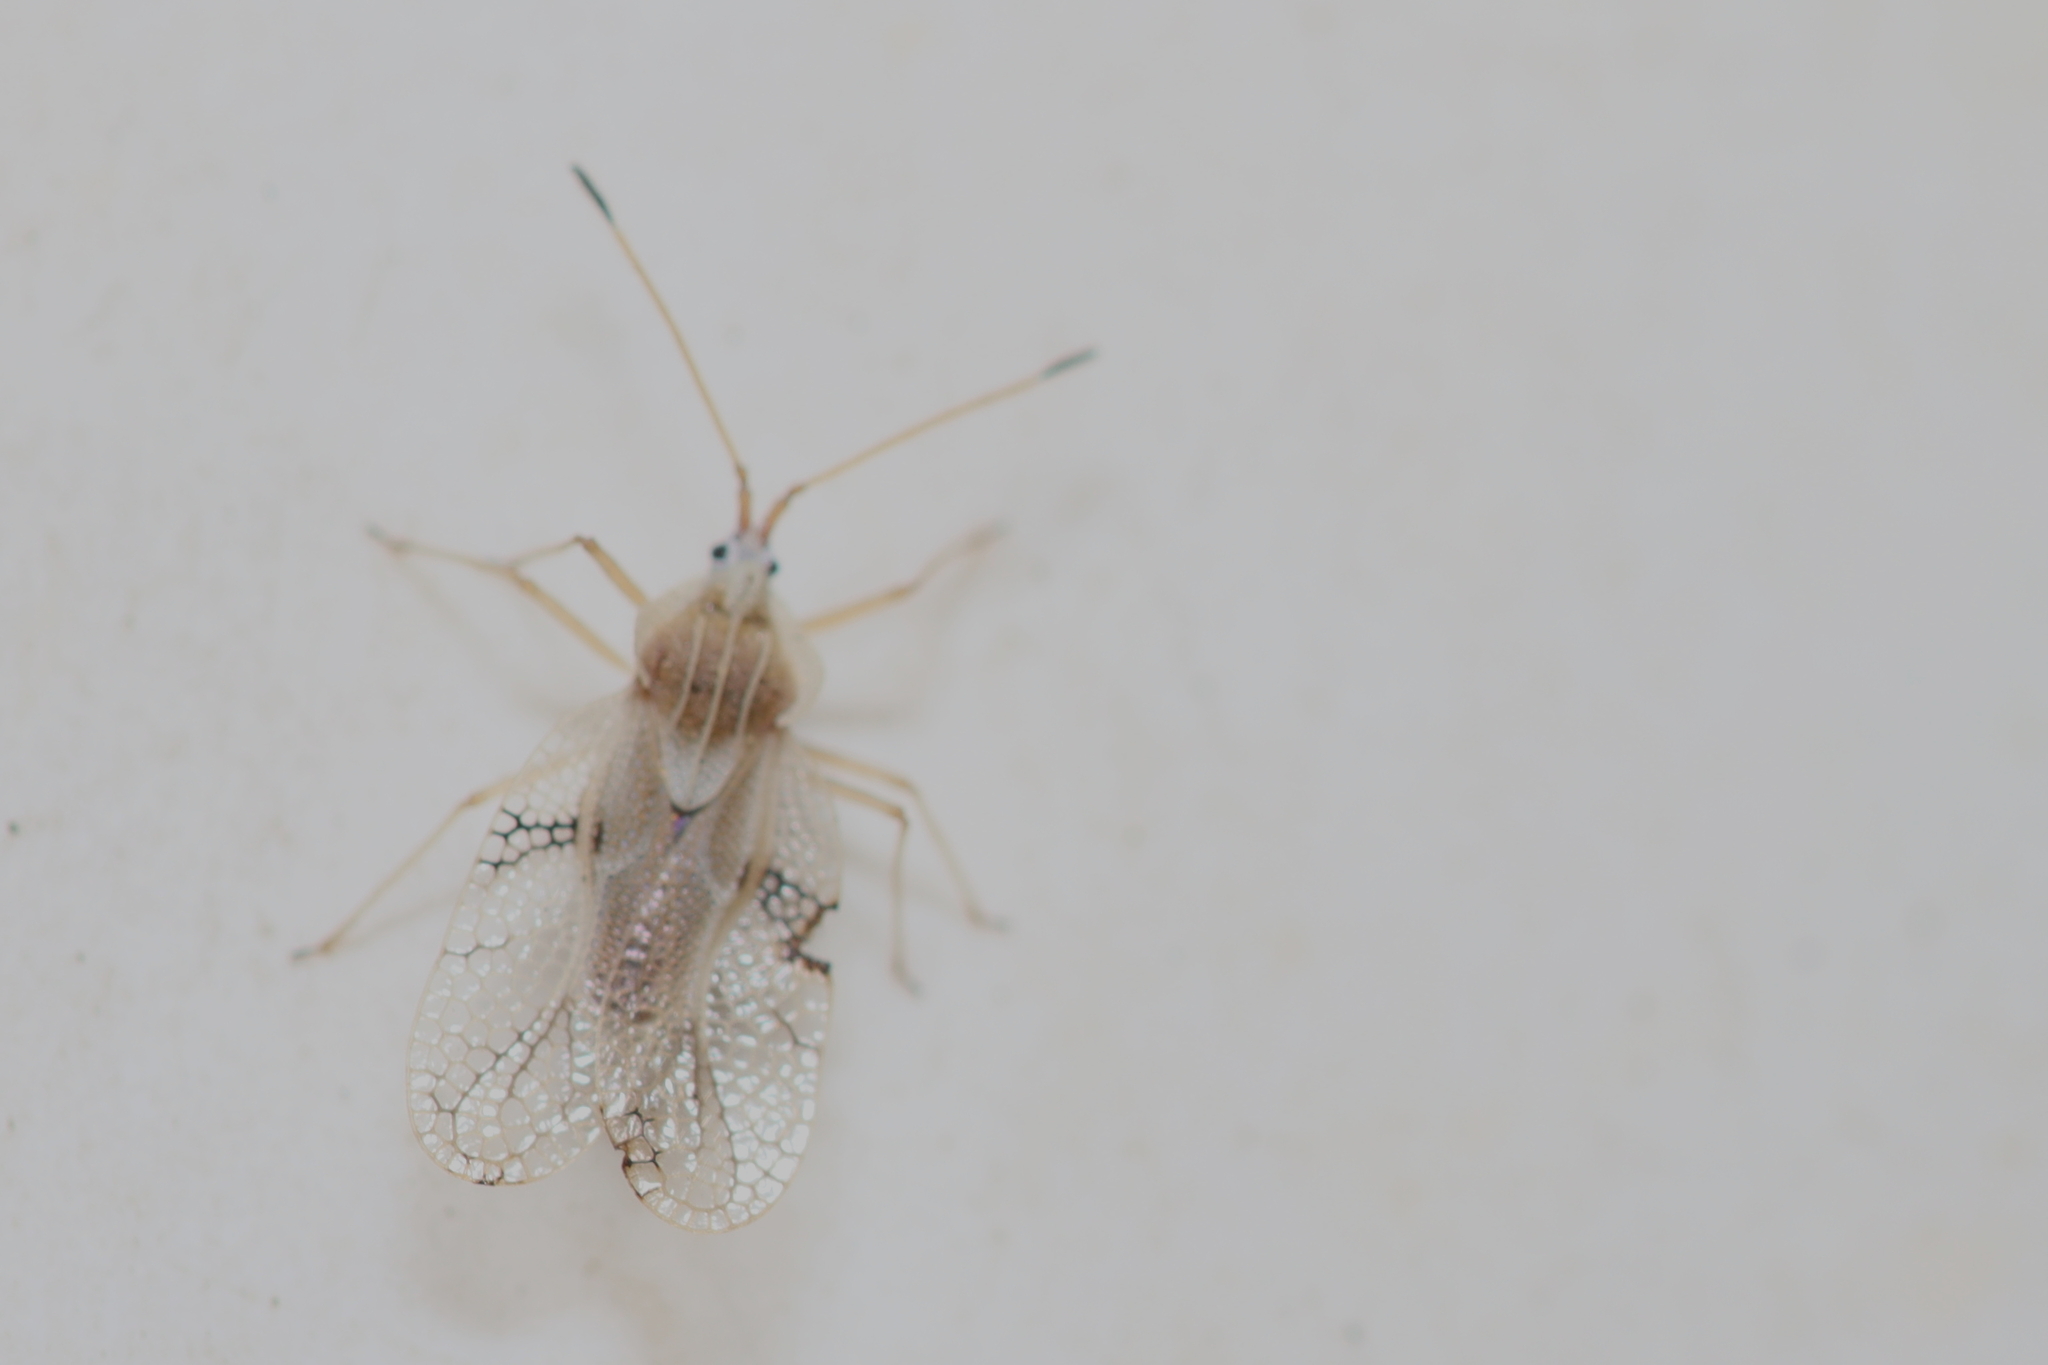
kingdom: Animalia
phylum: Arthropoda
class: Insecta
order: Hemiptera
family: Tingidae
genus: Gargaphia
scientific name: Gargaphia decoris
